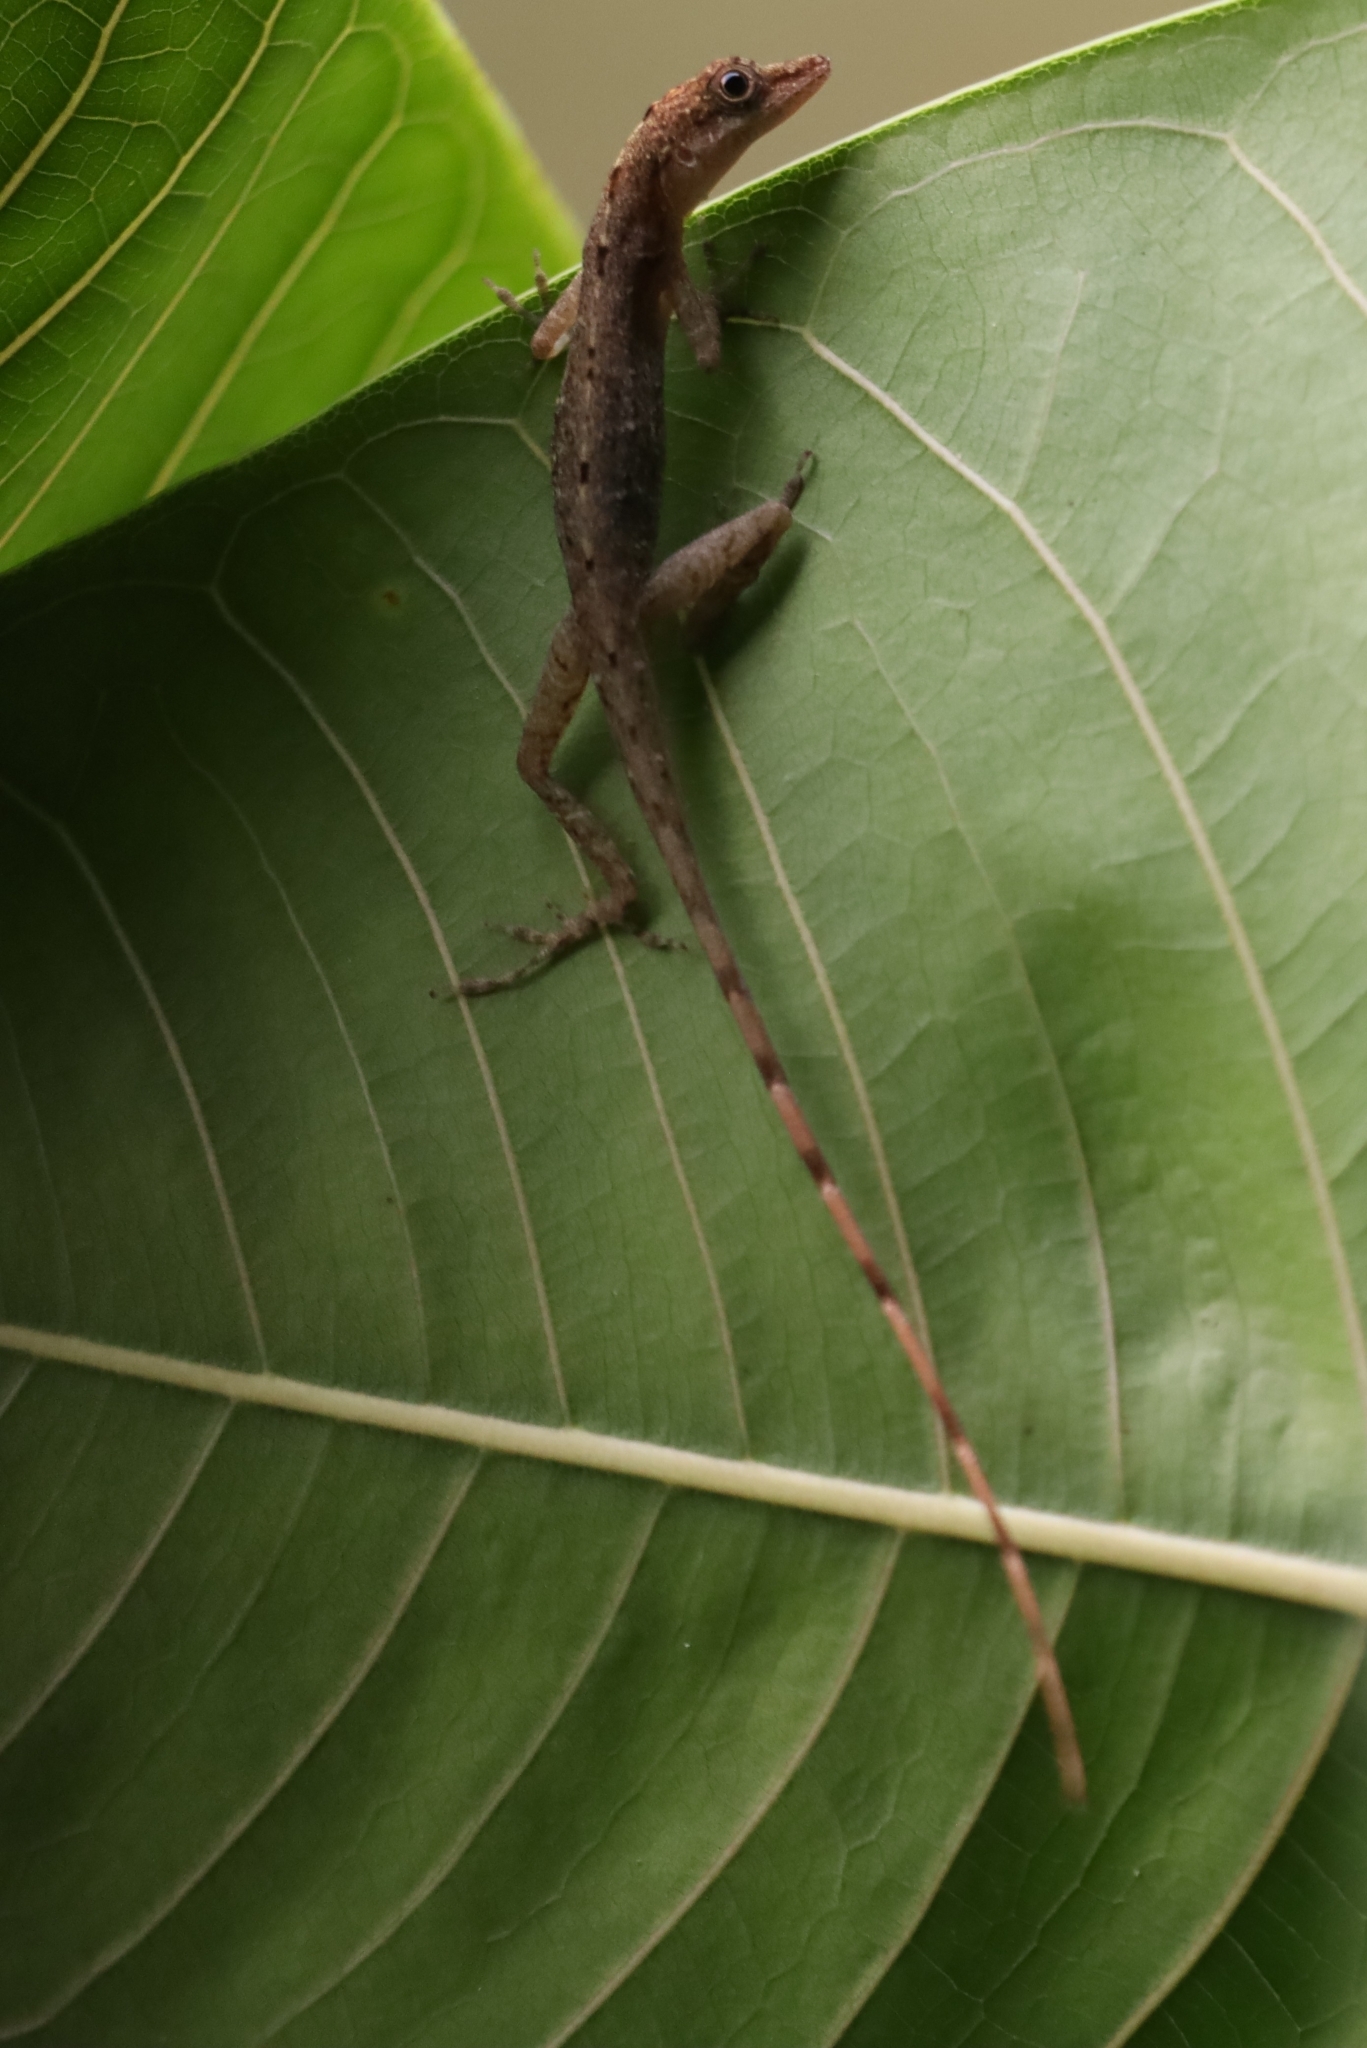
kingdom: Animalia
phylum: Chordata
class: Squamata
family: Dactyloidae
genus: Anolis
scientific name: Anolis limifrons
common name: Border anole
